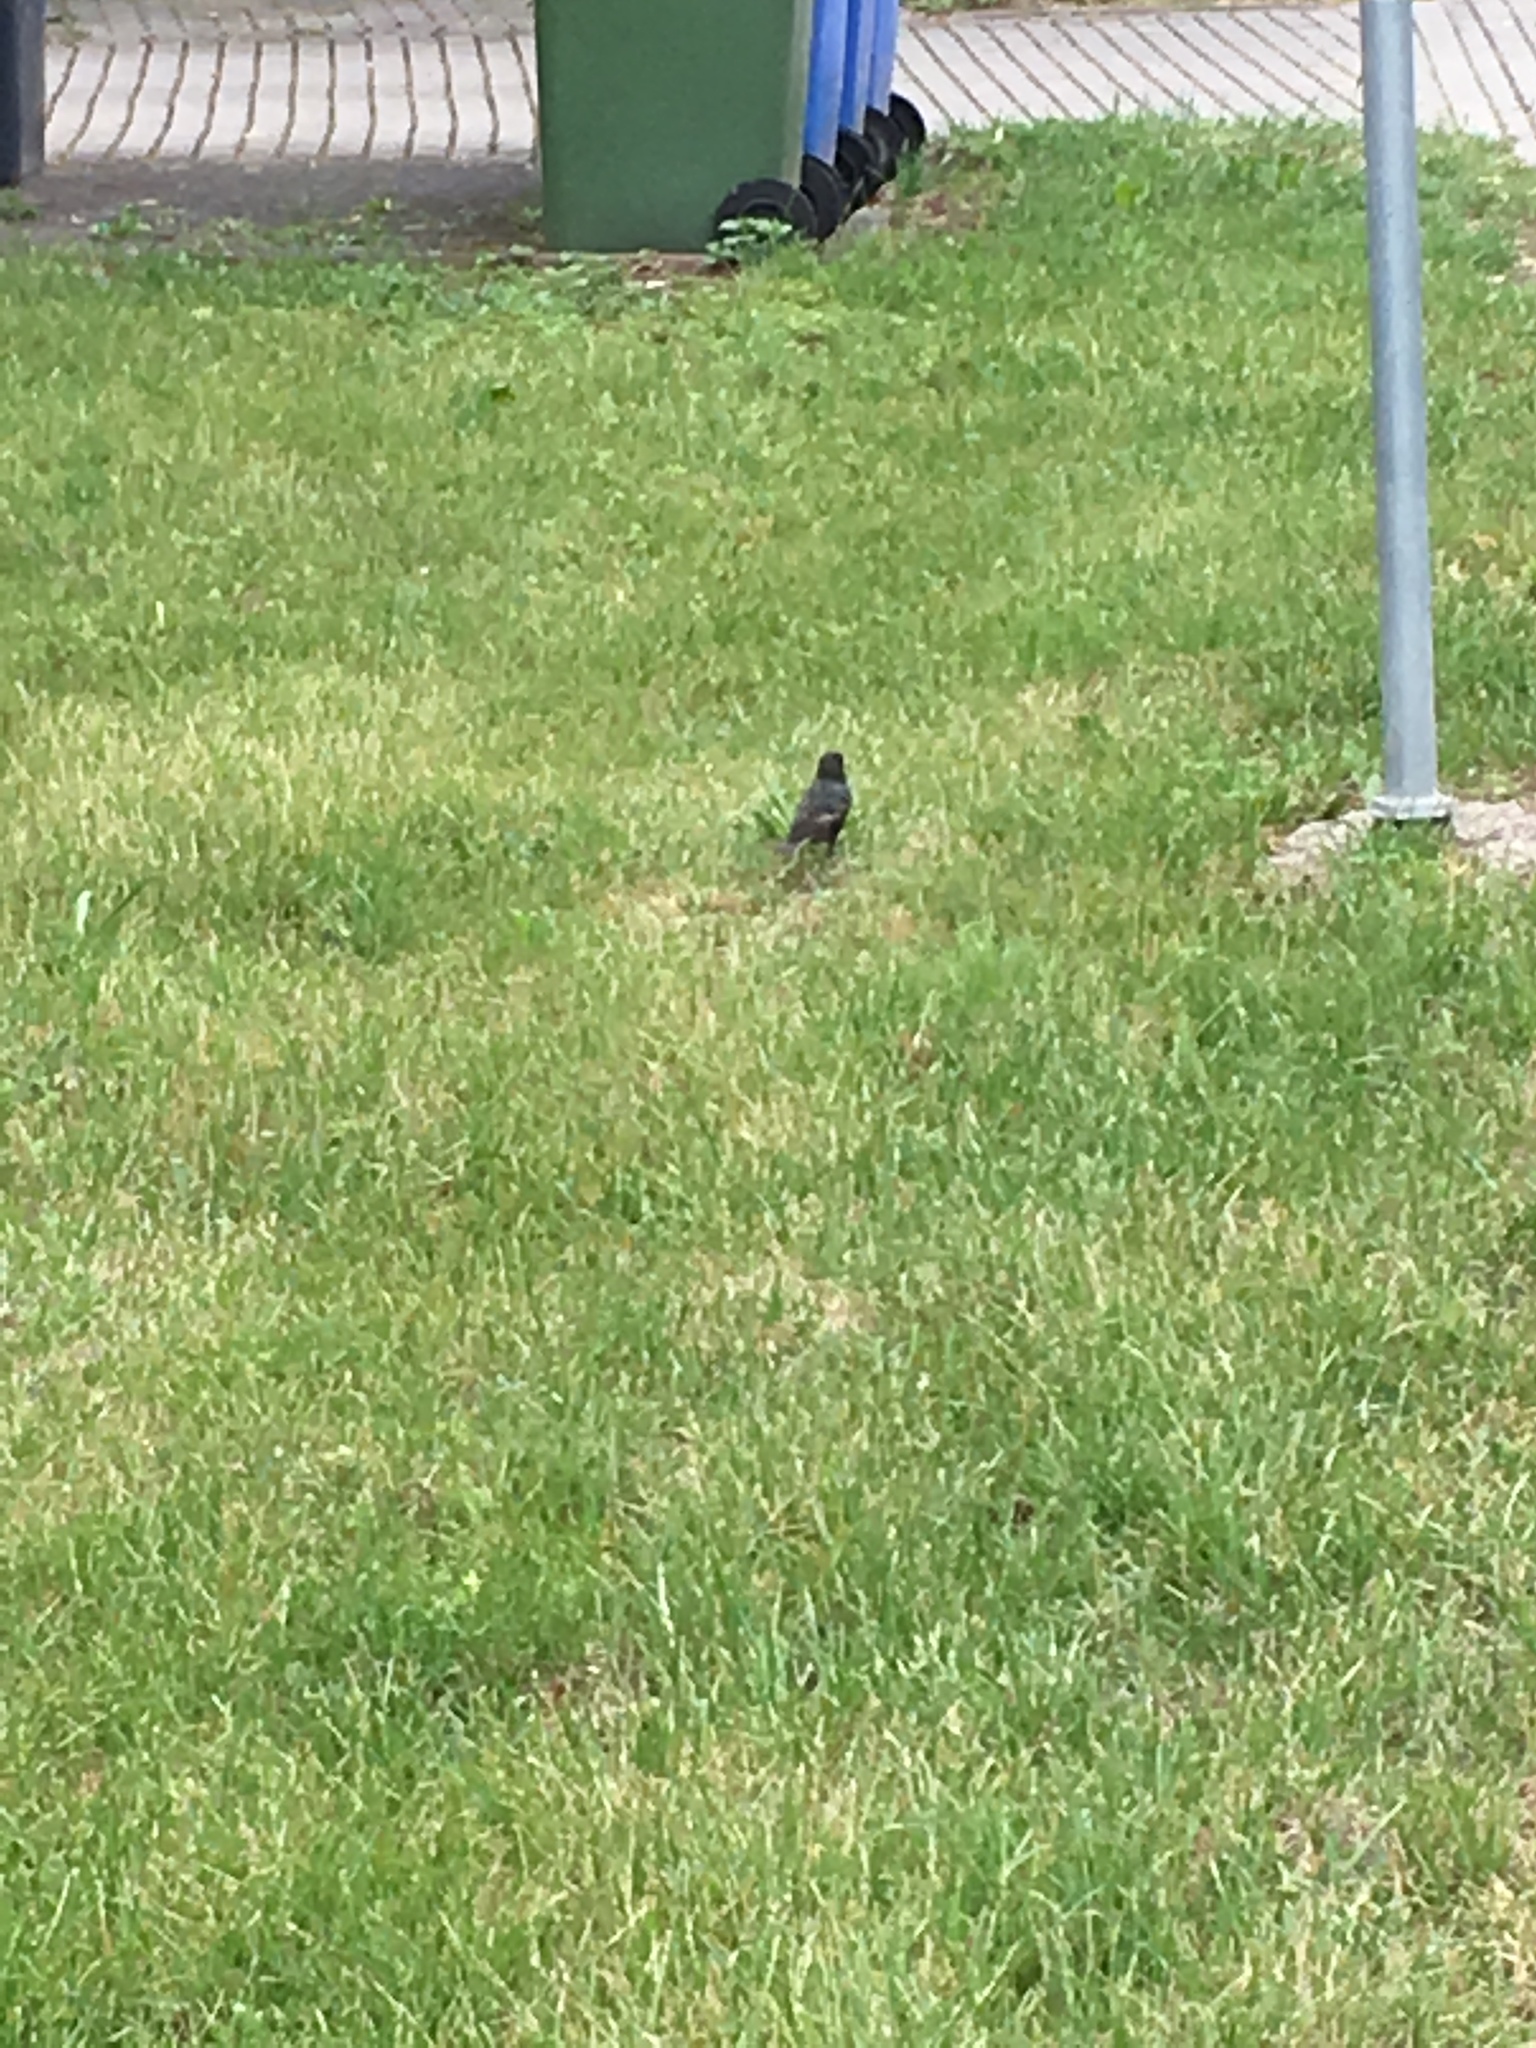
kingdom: Animalia
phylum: Chordata
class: Aves
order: Passeriformes
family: Sturnidae
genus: Sturnus
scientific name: Sturnus vulgaris
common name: Common starling
